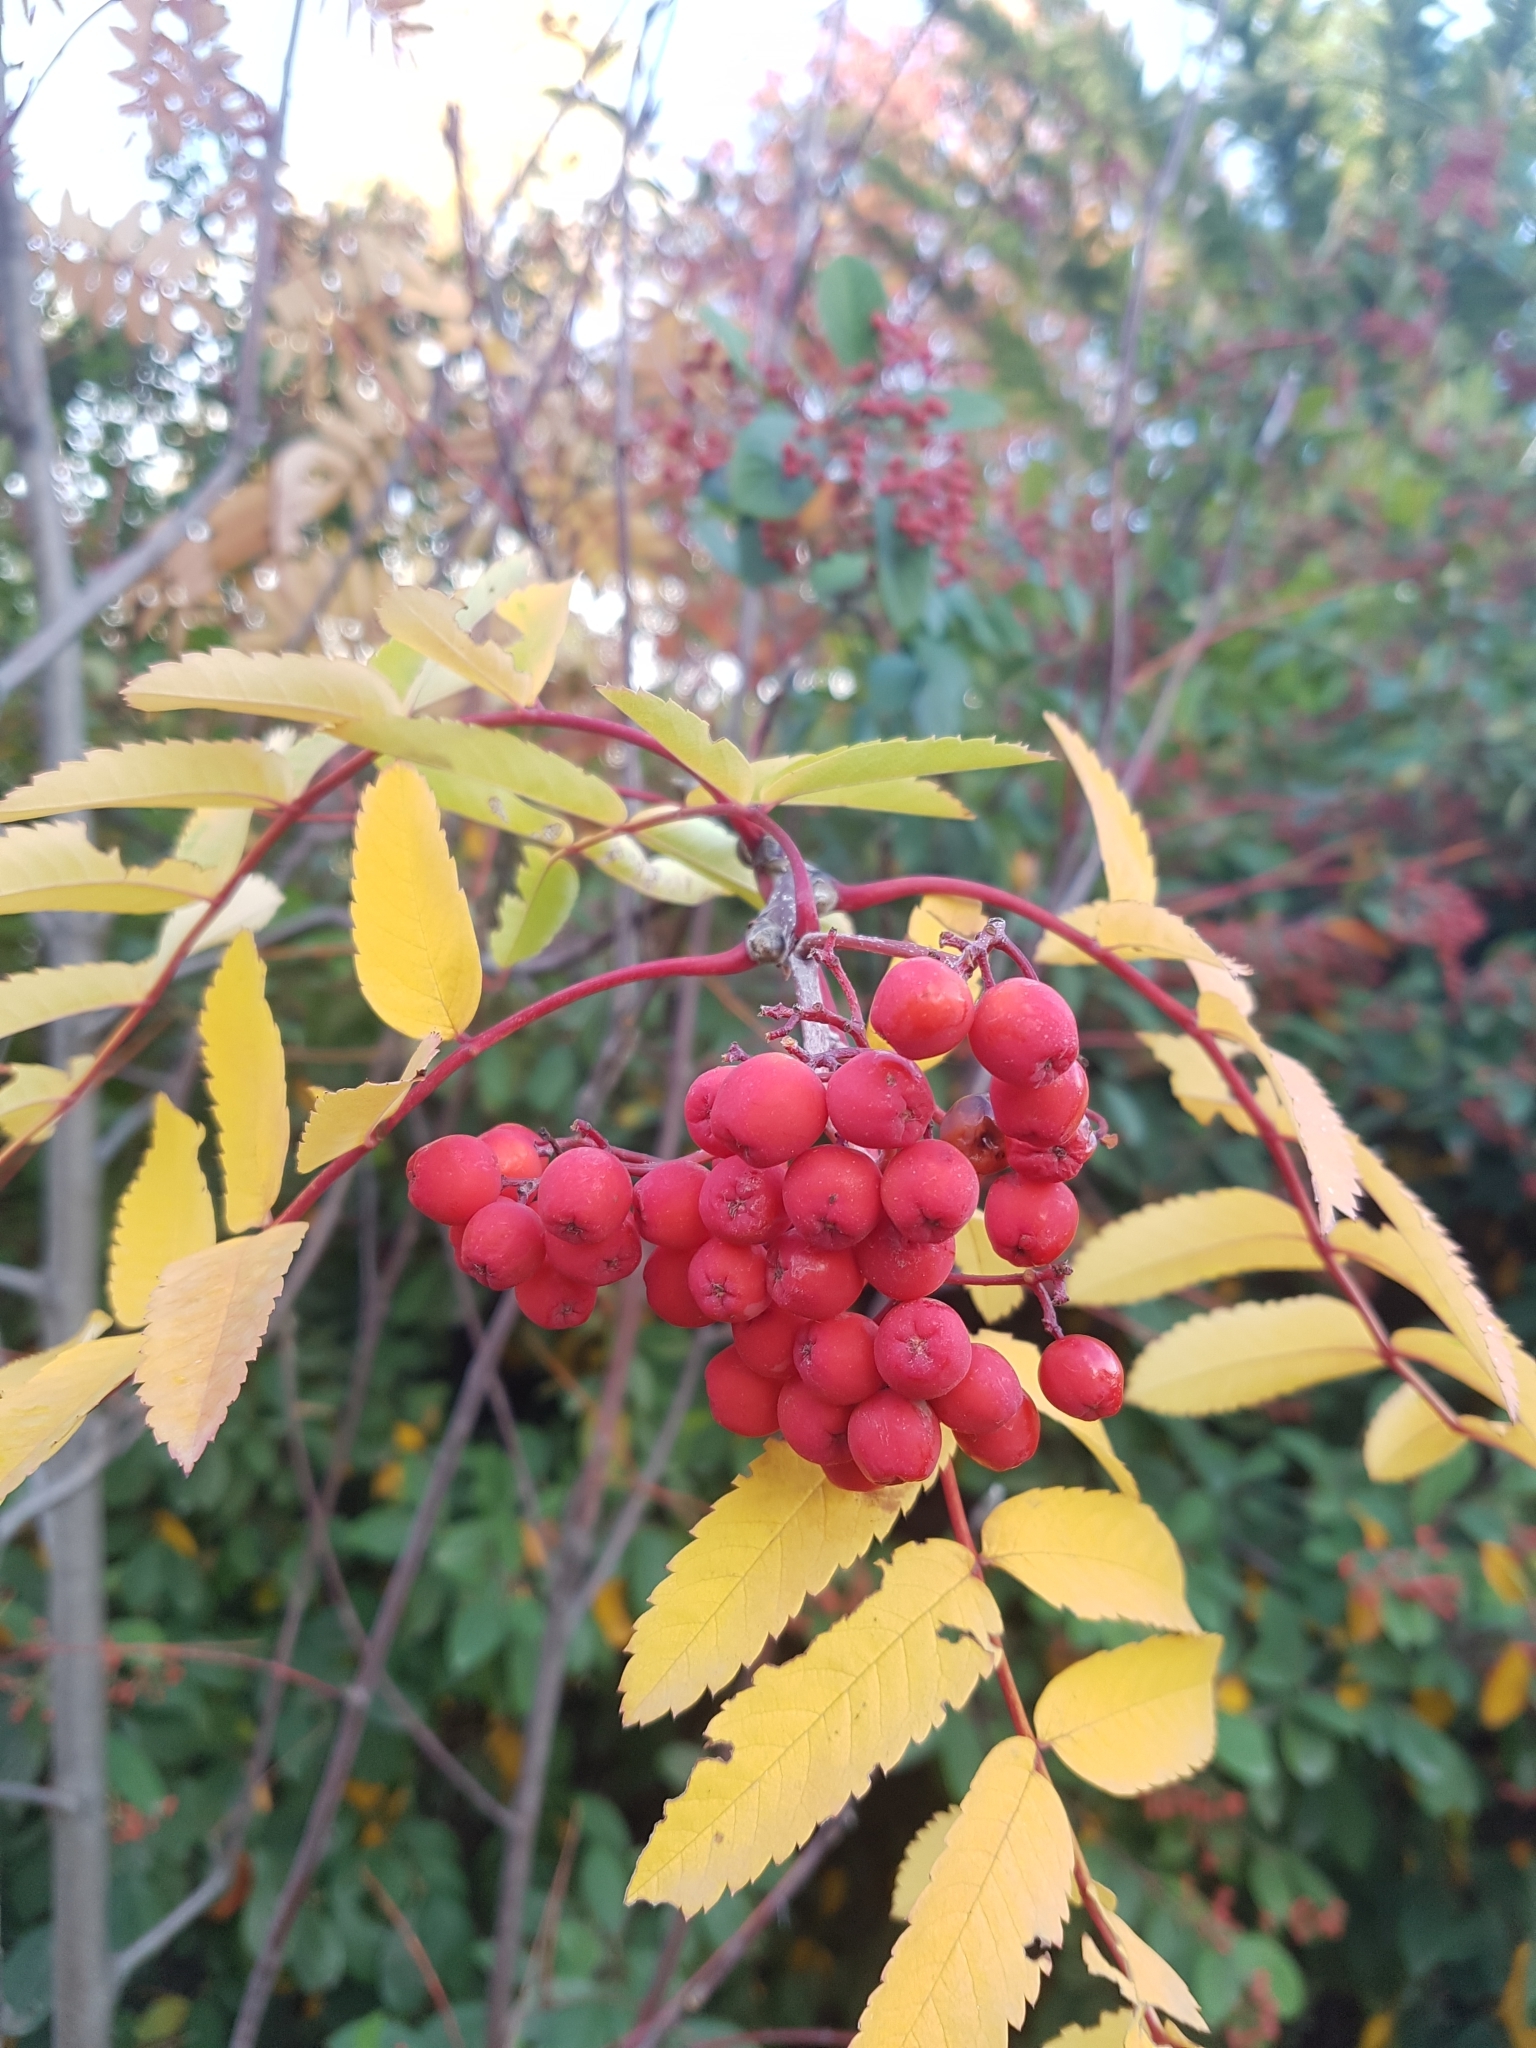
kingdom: Plantae
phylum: Tracheophyta
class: Magnoliopsida
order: Rosales
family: Rosaceae
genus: Sorbus
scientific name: Sorbus aucuparia
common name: Rowan
